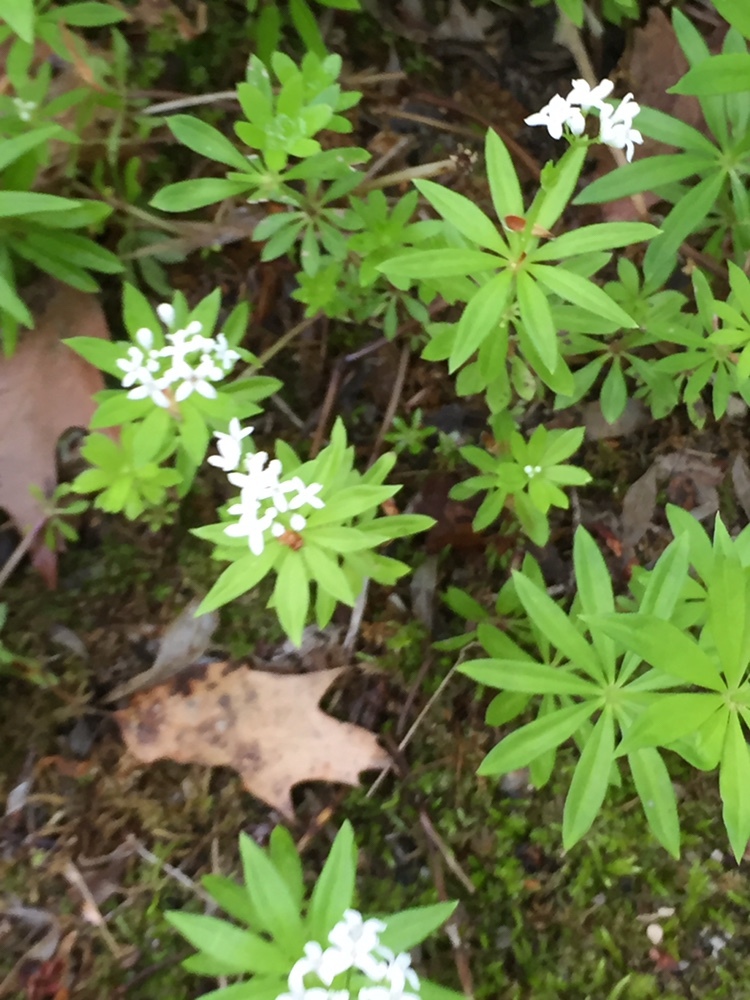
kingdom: Plantae
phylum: Tracheophyta
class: Magnoliopsida
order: Gentianales
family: Rubiaceae
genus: Galium
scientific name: Galium odoratum
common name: Sweet woodruff
